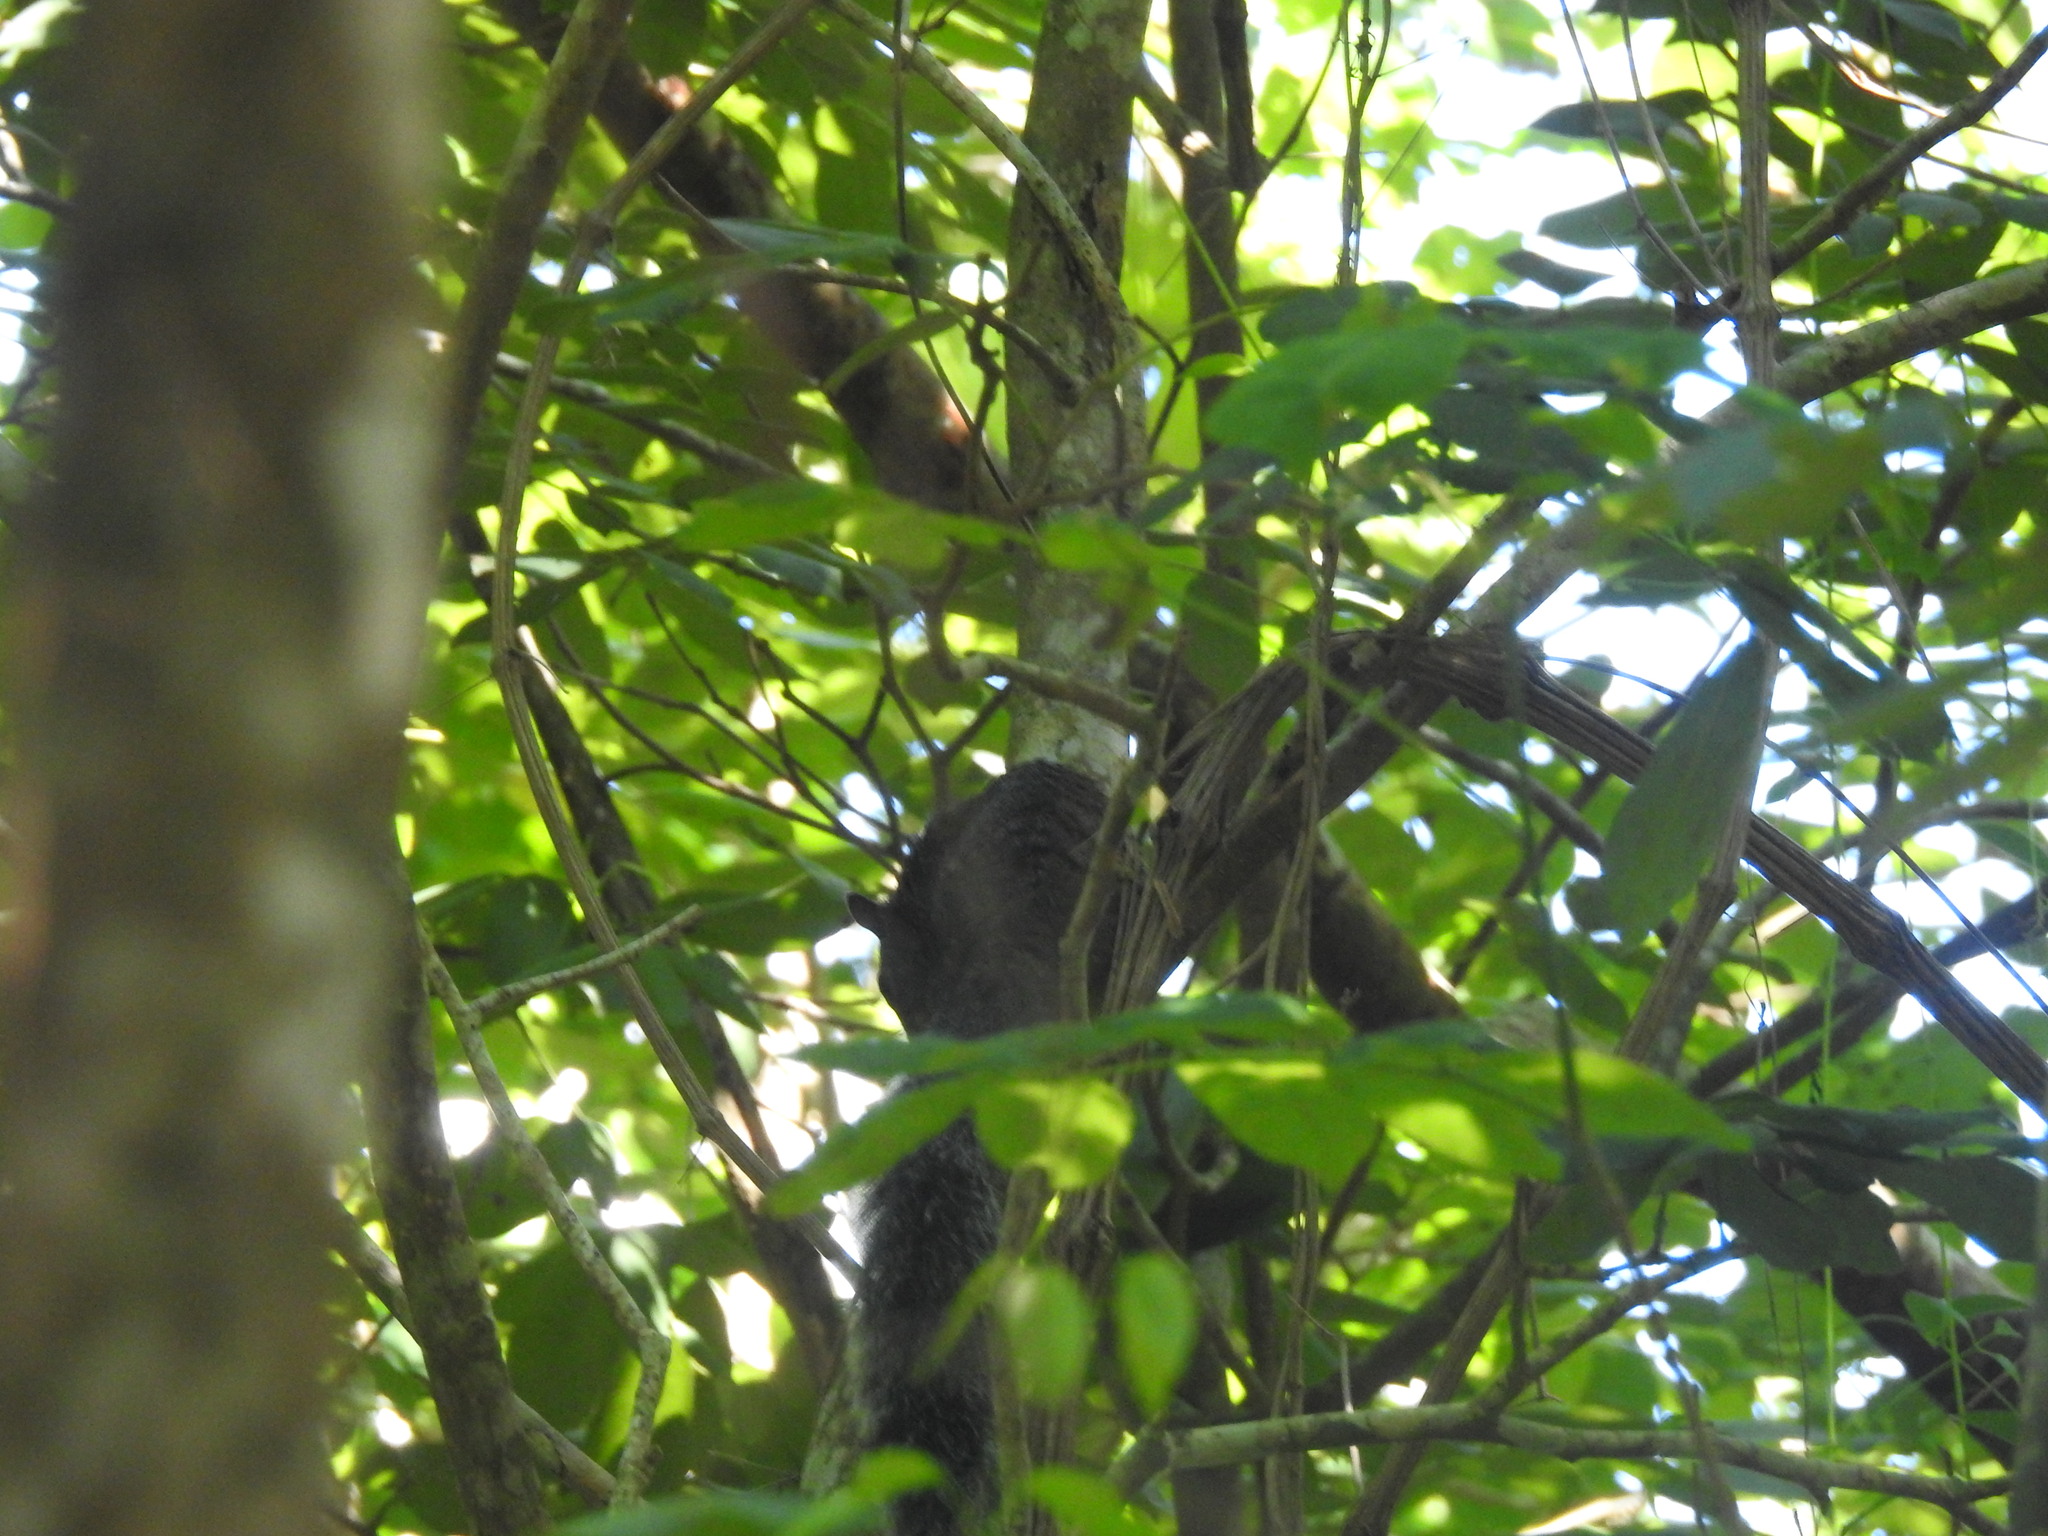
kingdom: Animalia
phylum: Chordata
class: Mammalia
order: Rodentia
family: Sciuridae
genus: Sciurus
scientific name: Sciurus yucatanensis
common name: Yucatan squirrel
